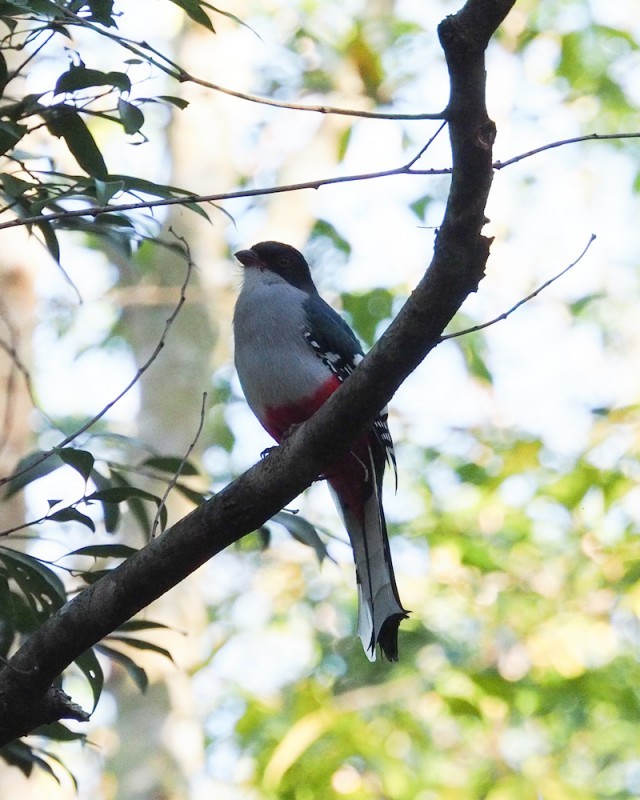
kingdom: Animalia
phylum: Chordata
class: Aves
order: Trogoniformes
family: Trogonidae
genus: Priotelus
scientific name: Priotelus temnurus
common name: Cuban trogon
